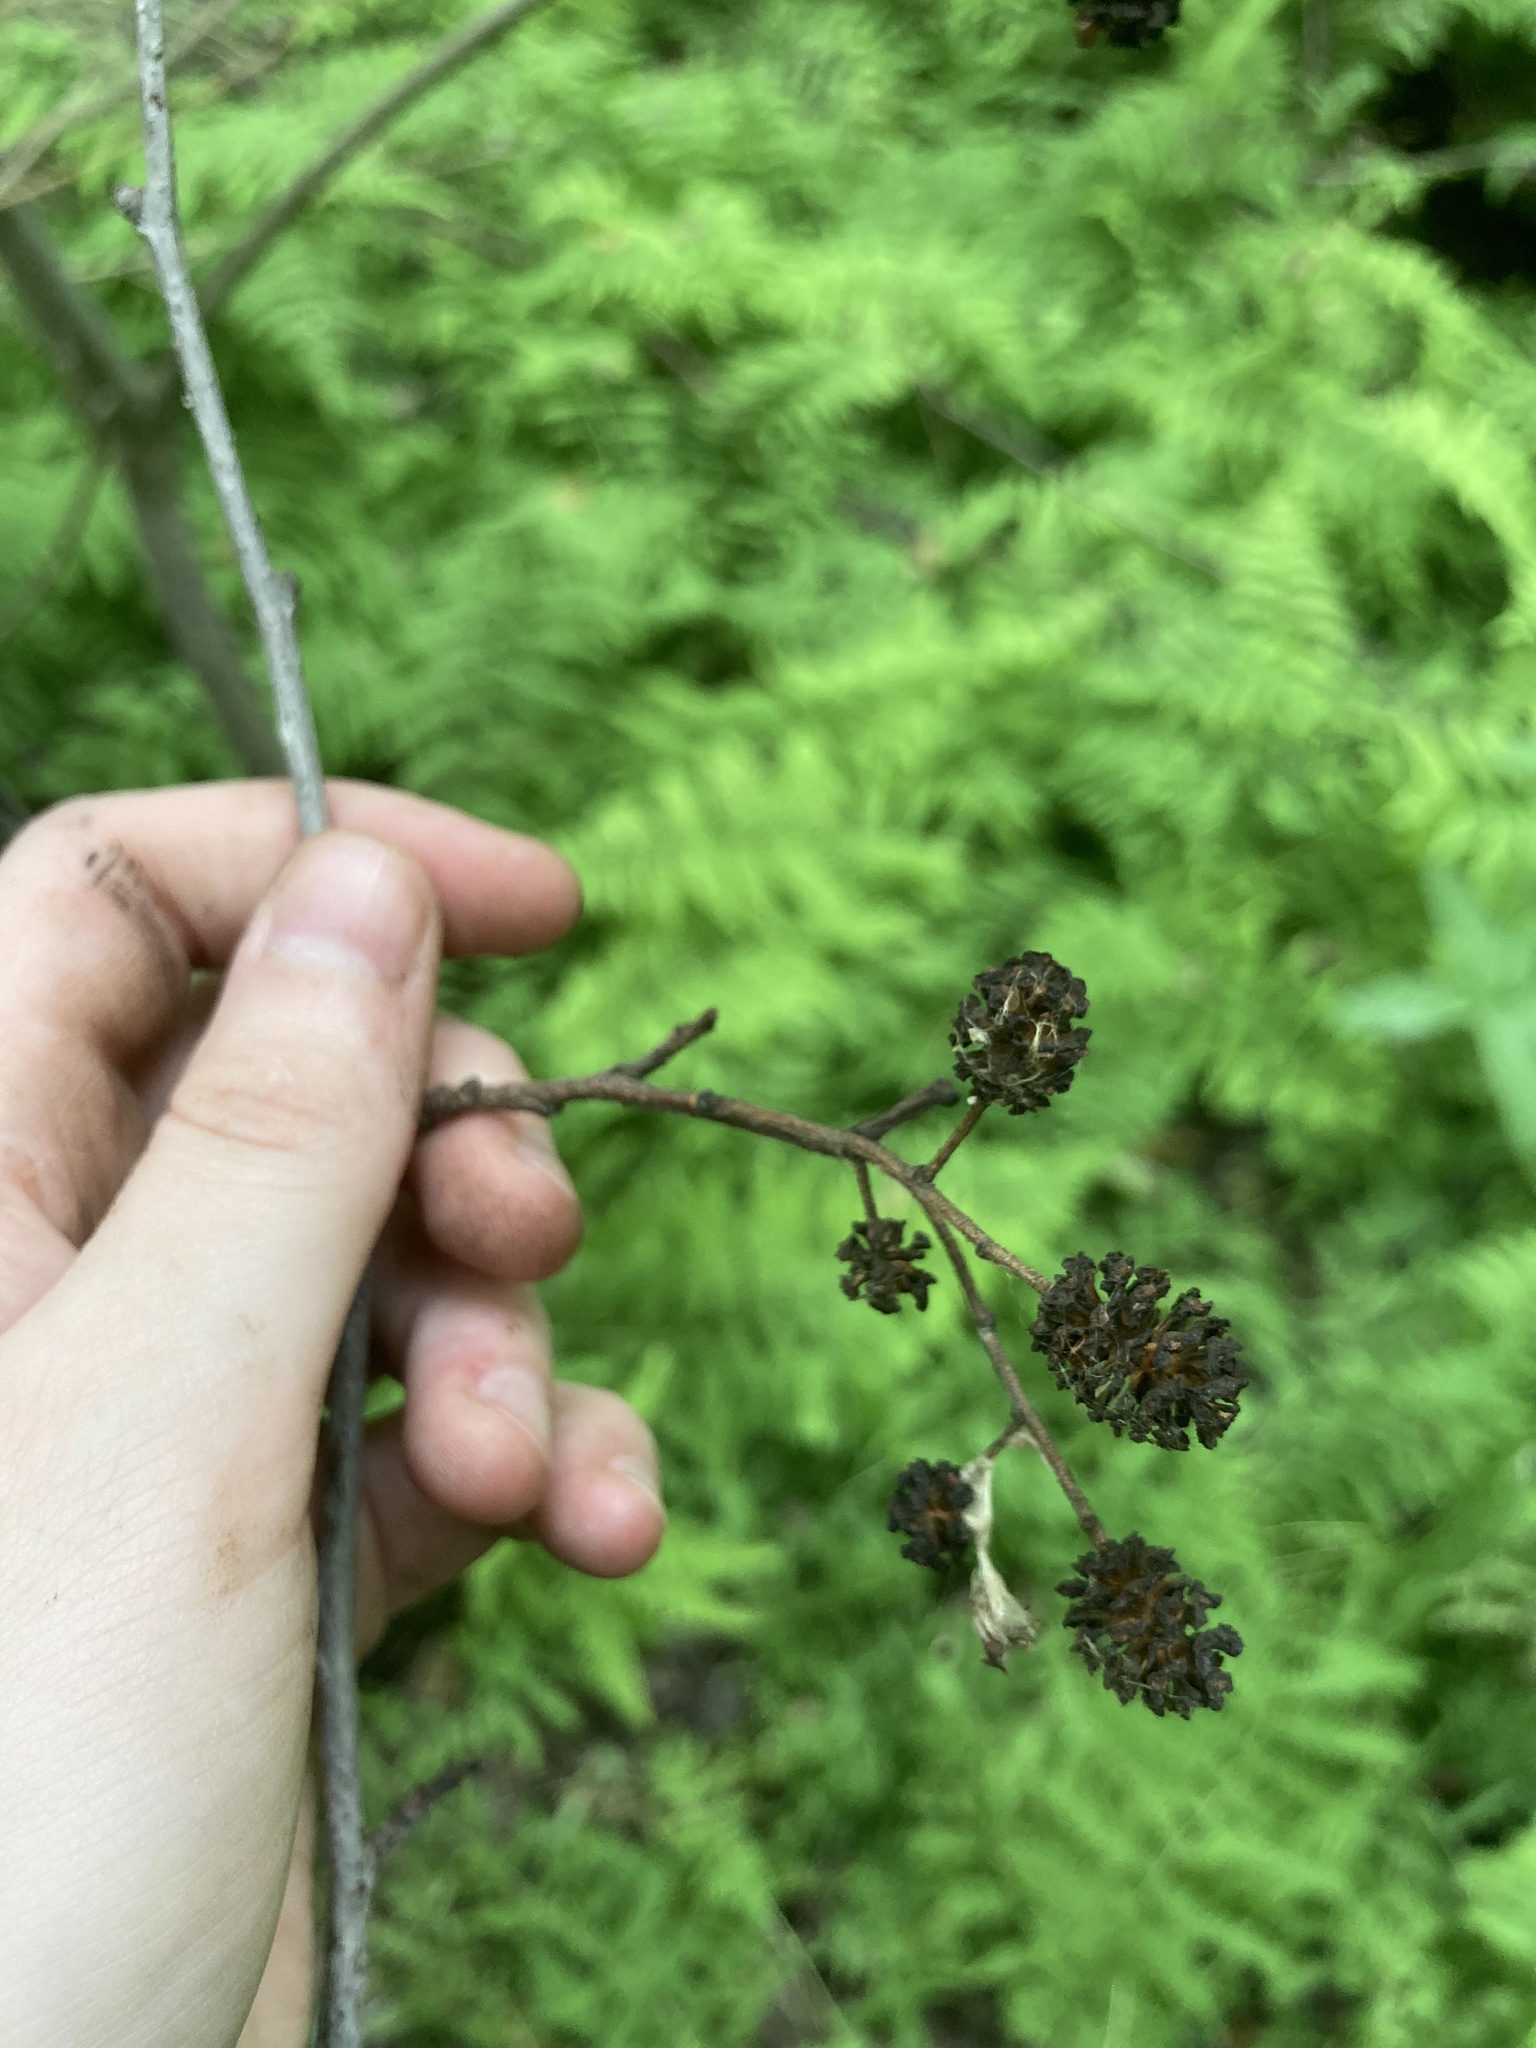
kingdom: Plantae
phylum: Tracheophyta
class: Magnoliopsida
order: Fagales
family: Betulaceae
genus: Alnus
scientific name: Alnus glutinosa
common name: Black alder
